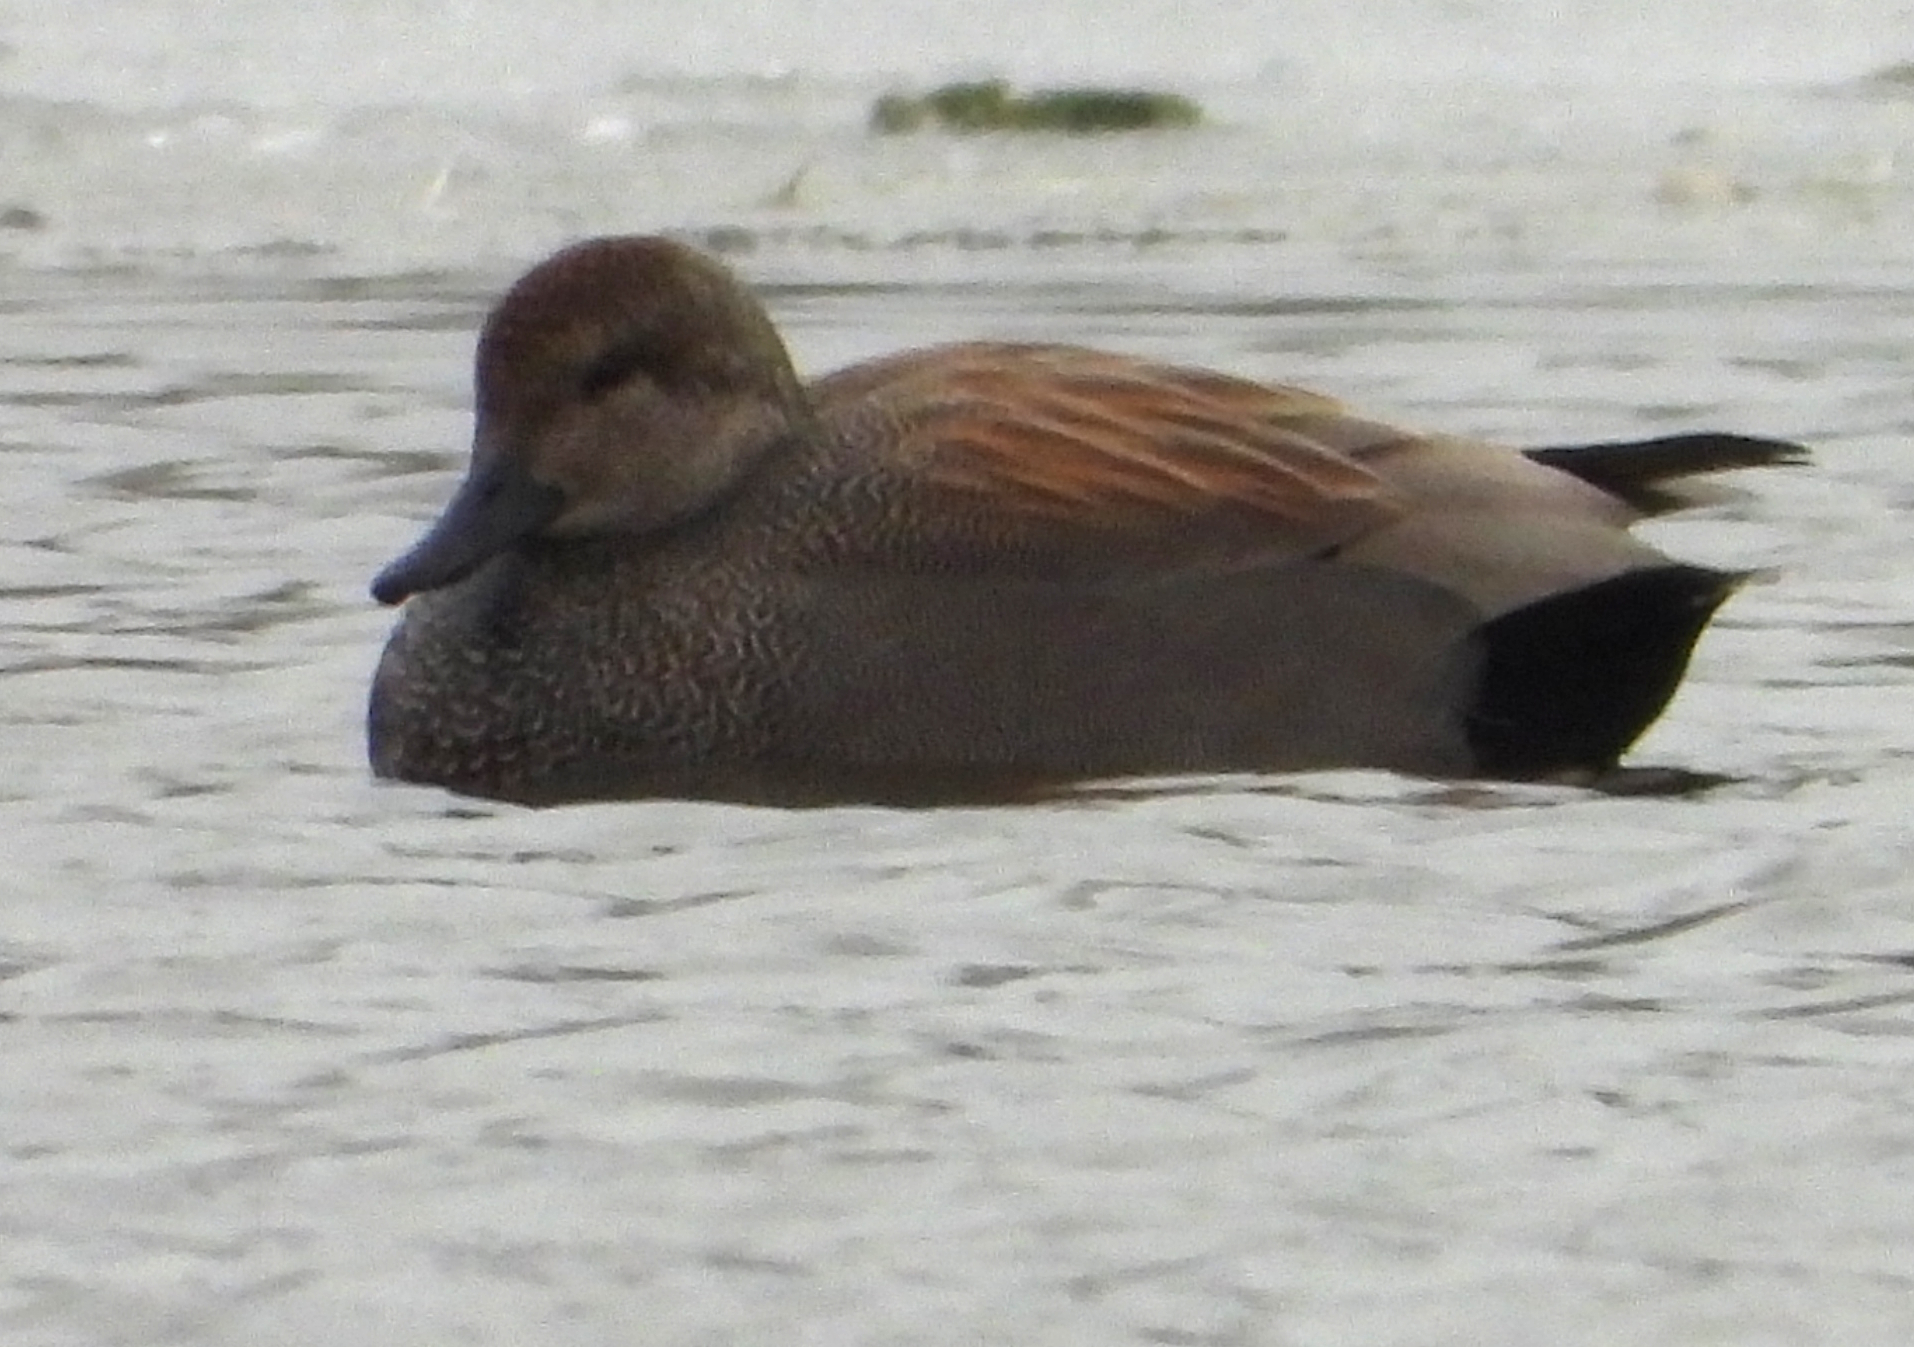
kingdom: Animalia
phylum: Chordata
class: Aves
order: Anseriformes
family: Anatidae
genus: Mareca
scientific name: Mareca strepera
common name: Gadwall
